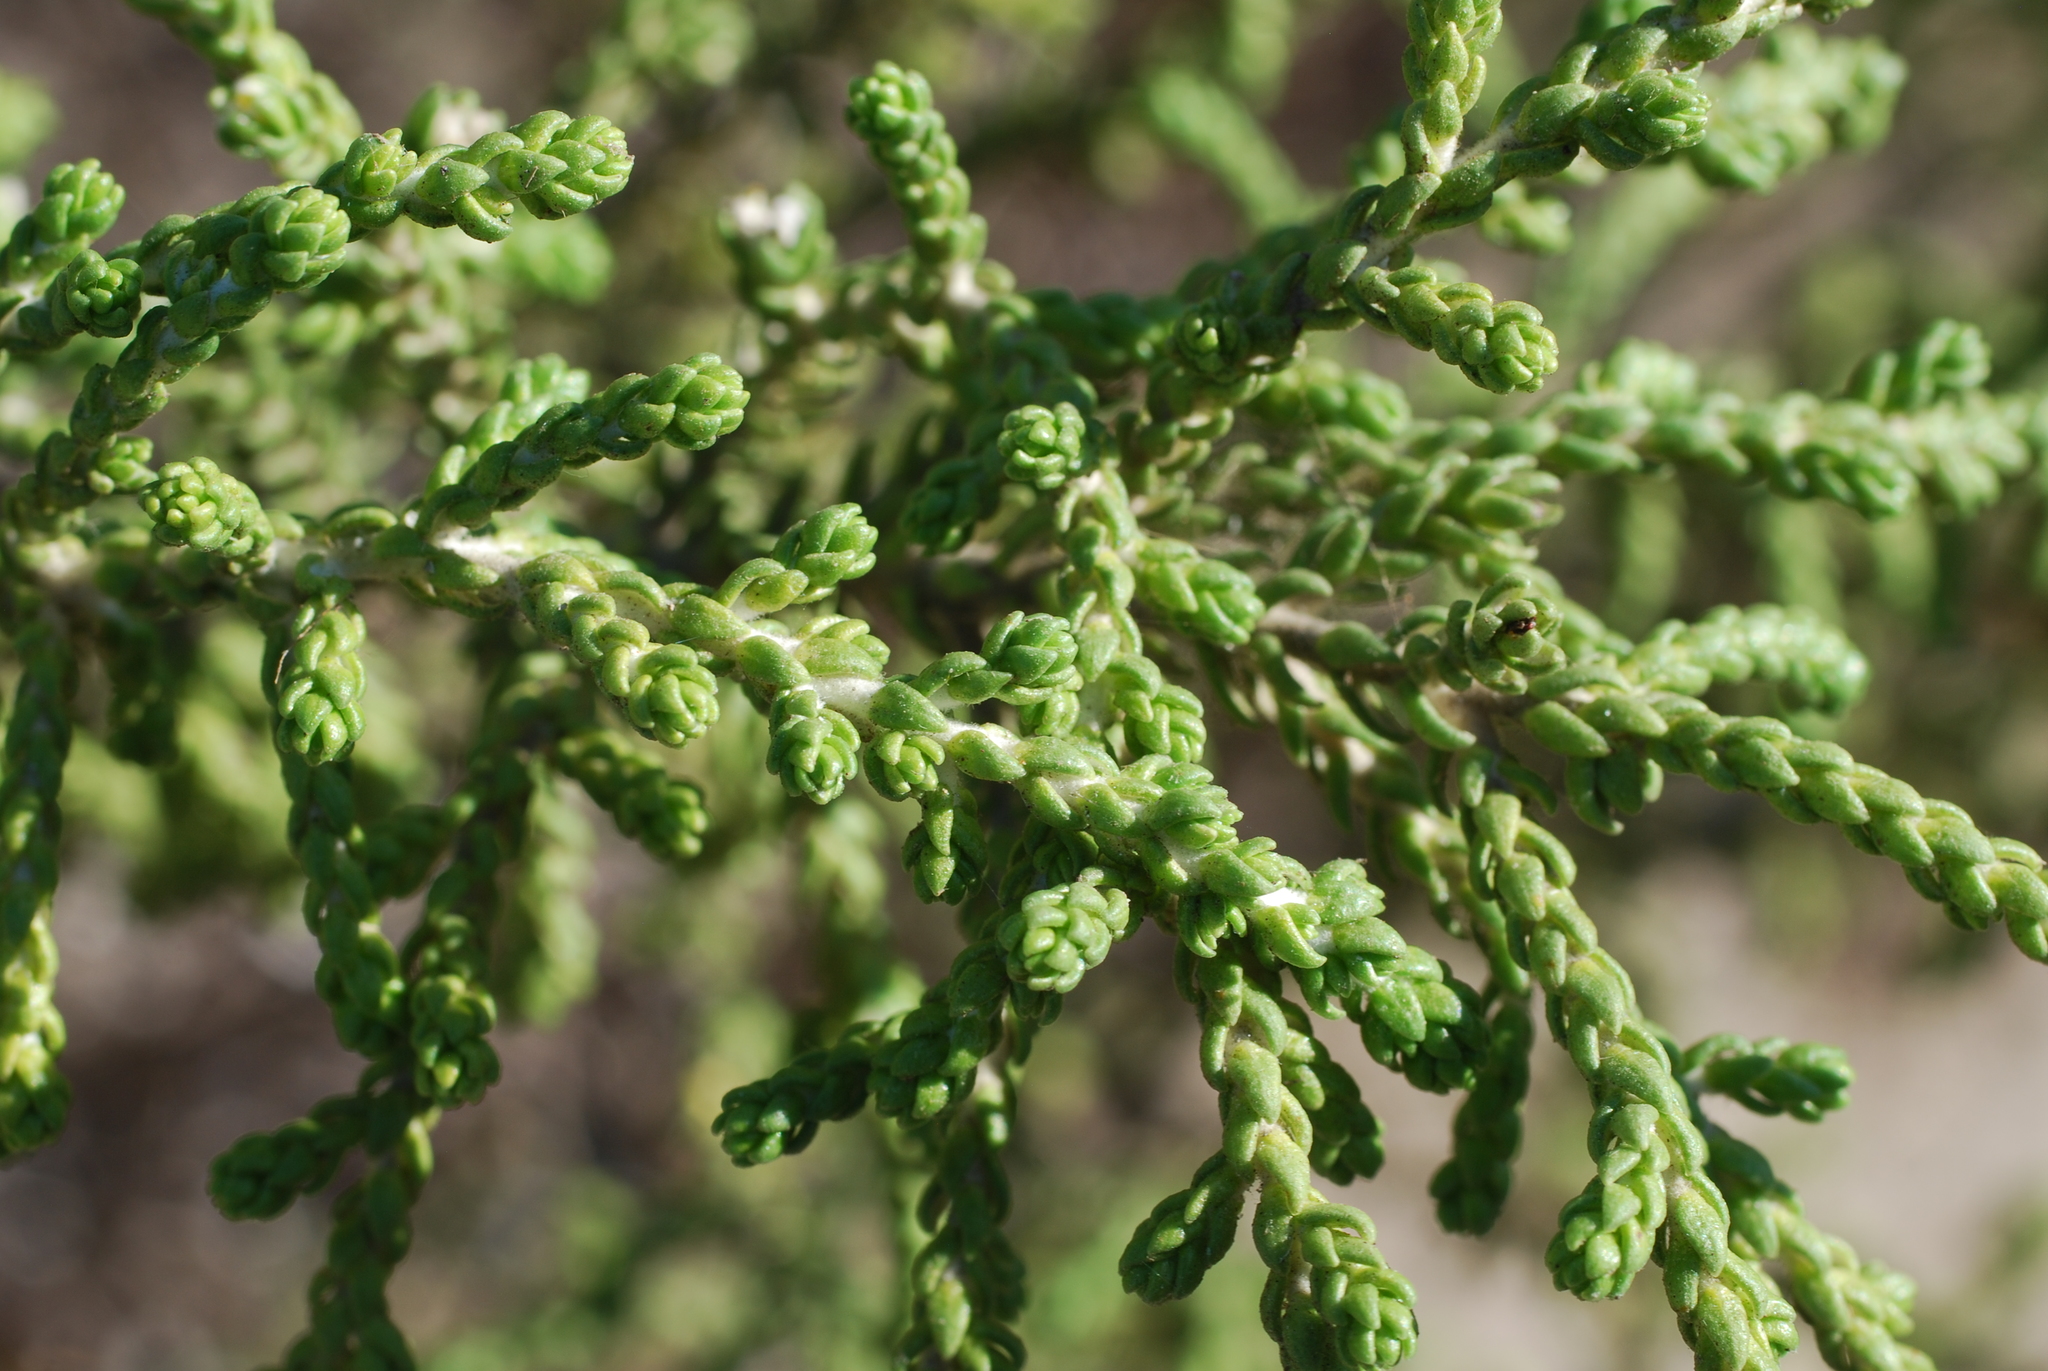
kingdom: Plantae
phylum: Tracheophyta
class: Magnoliopsida
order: Malvales
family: Thymelaeaceae
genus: Thymelaea
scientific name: Thymelaea hirsuta
